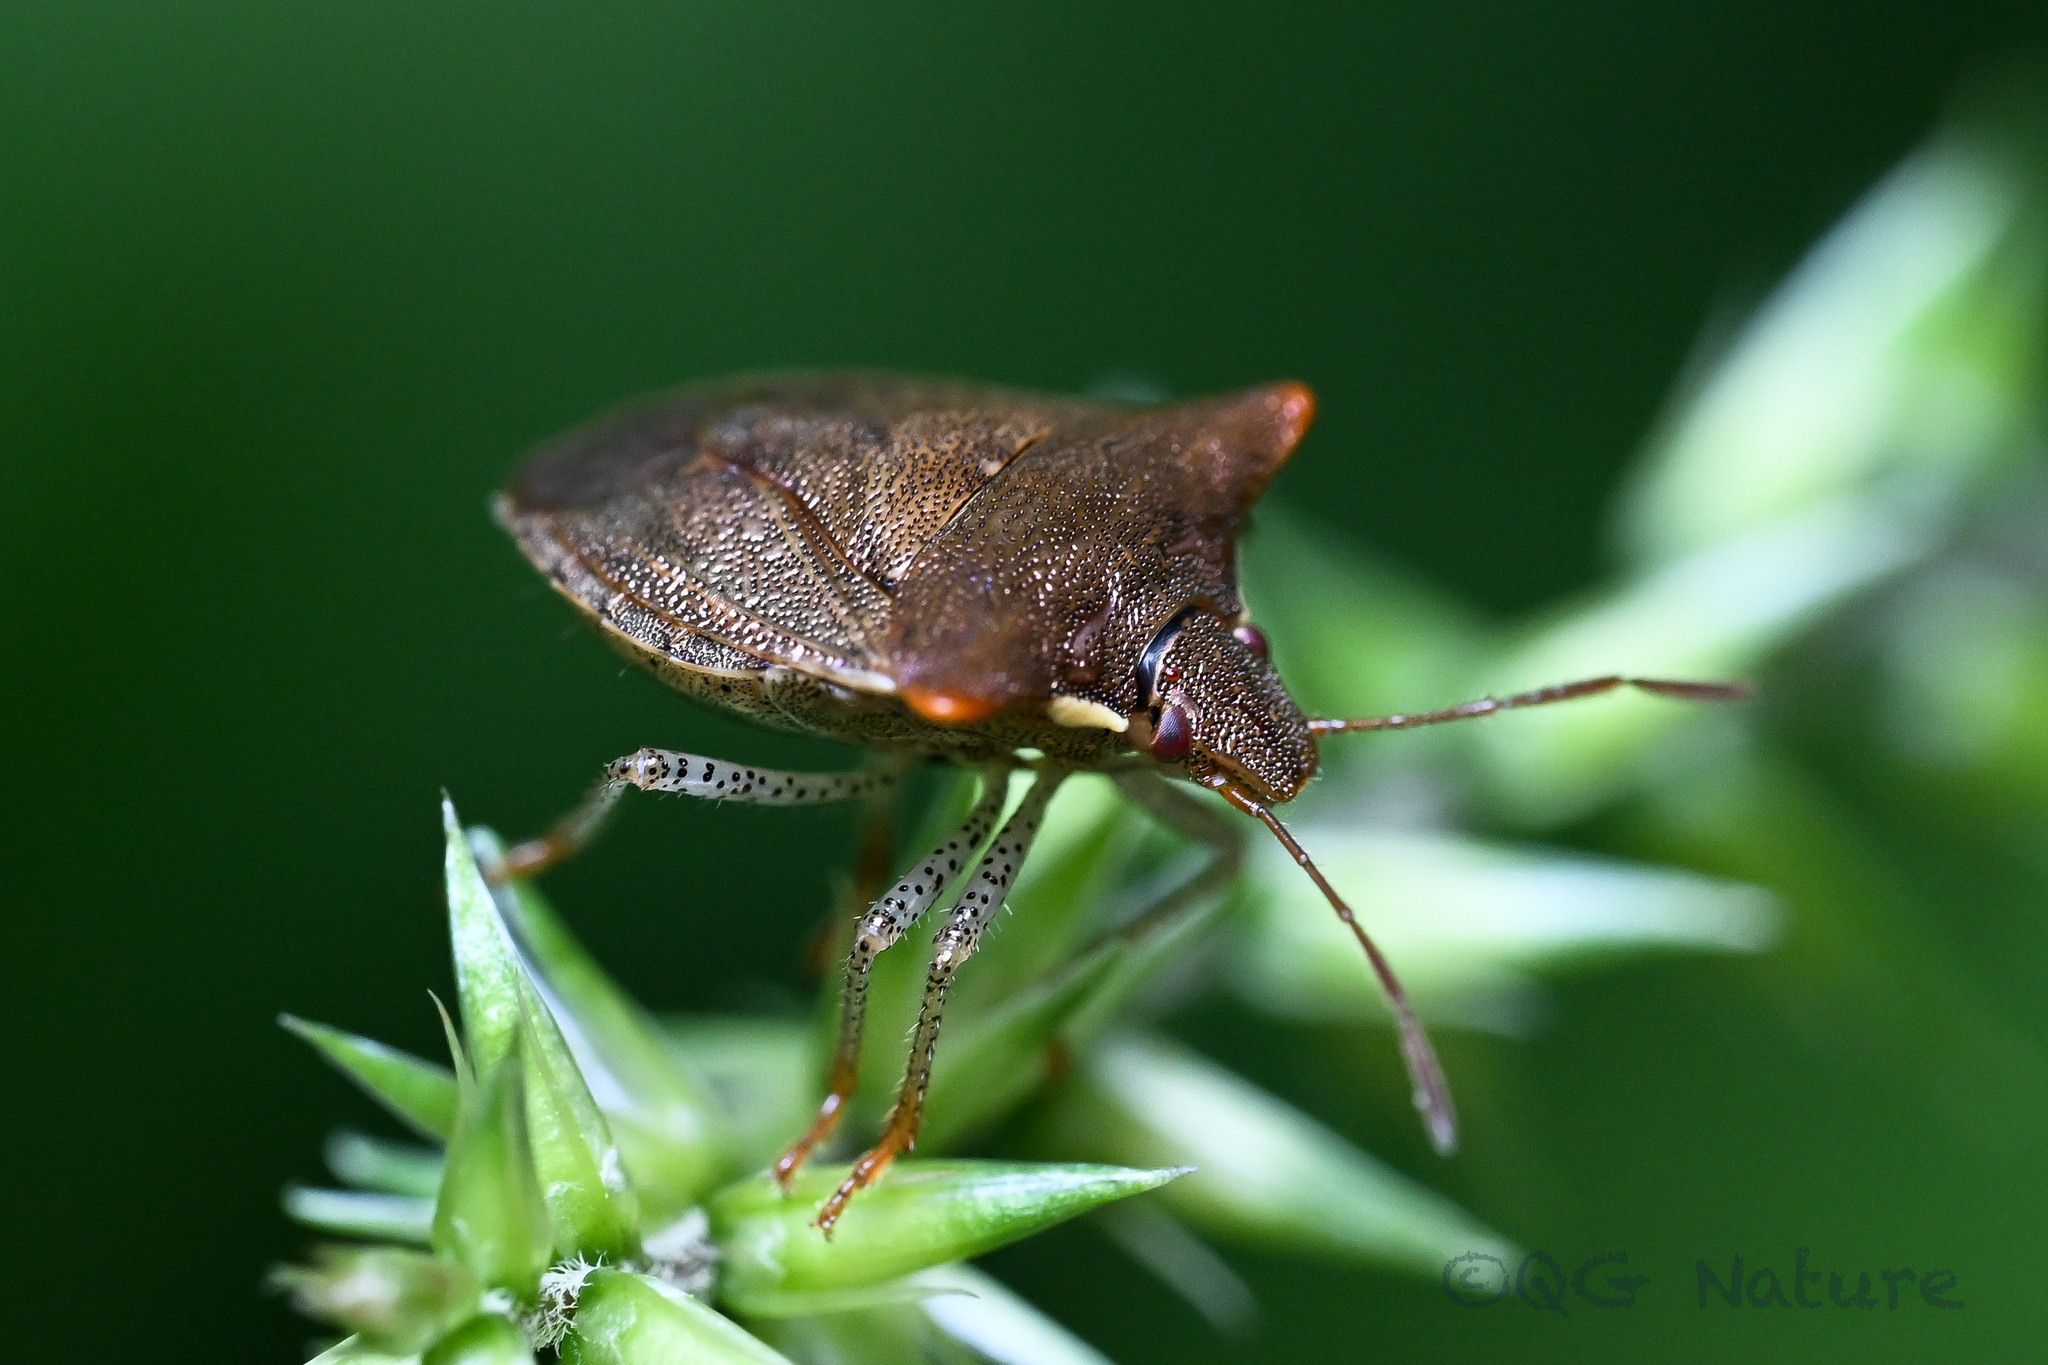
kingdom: Animalia
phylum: Arthropoda
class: Insecta
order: Hemiptera
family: Pentatomidae
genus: Carbula
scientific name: Carbula crassiventris
